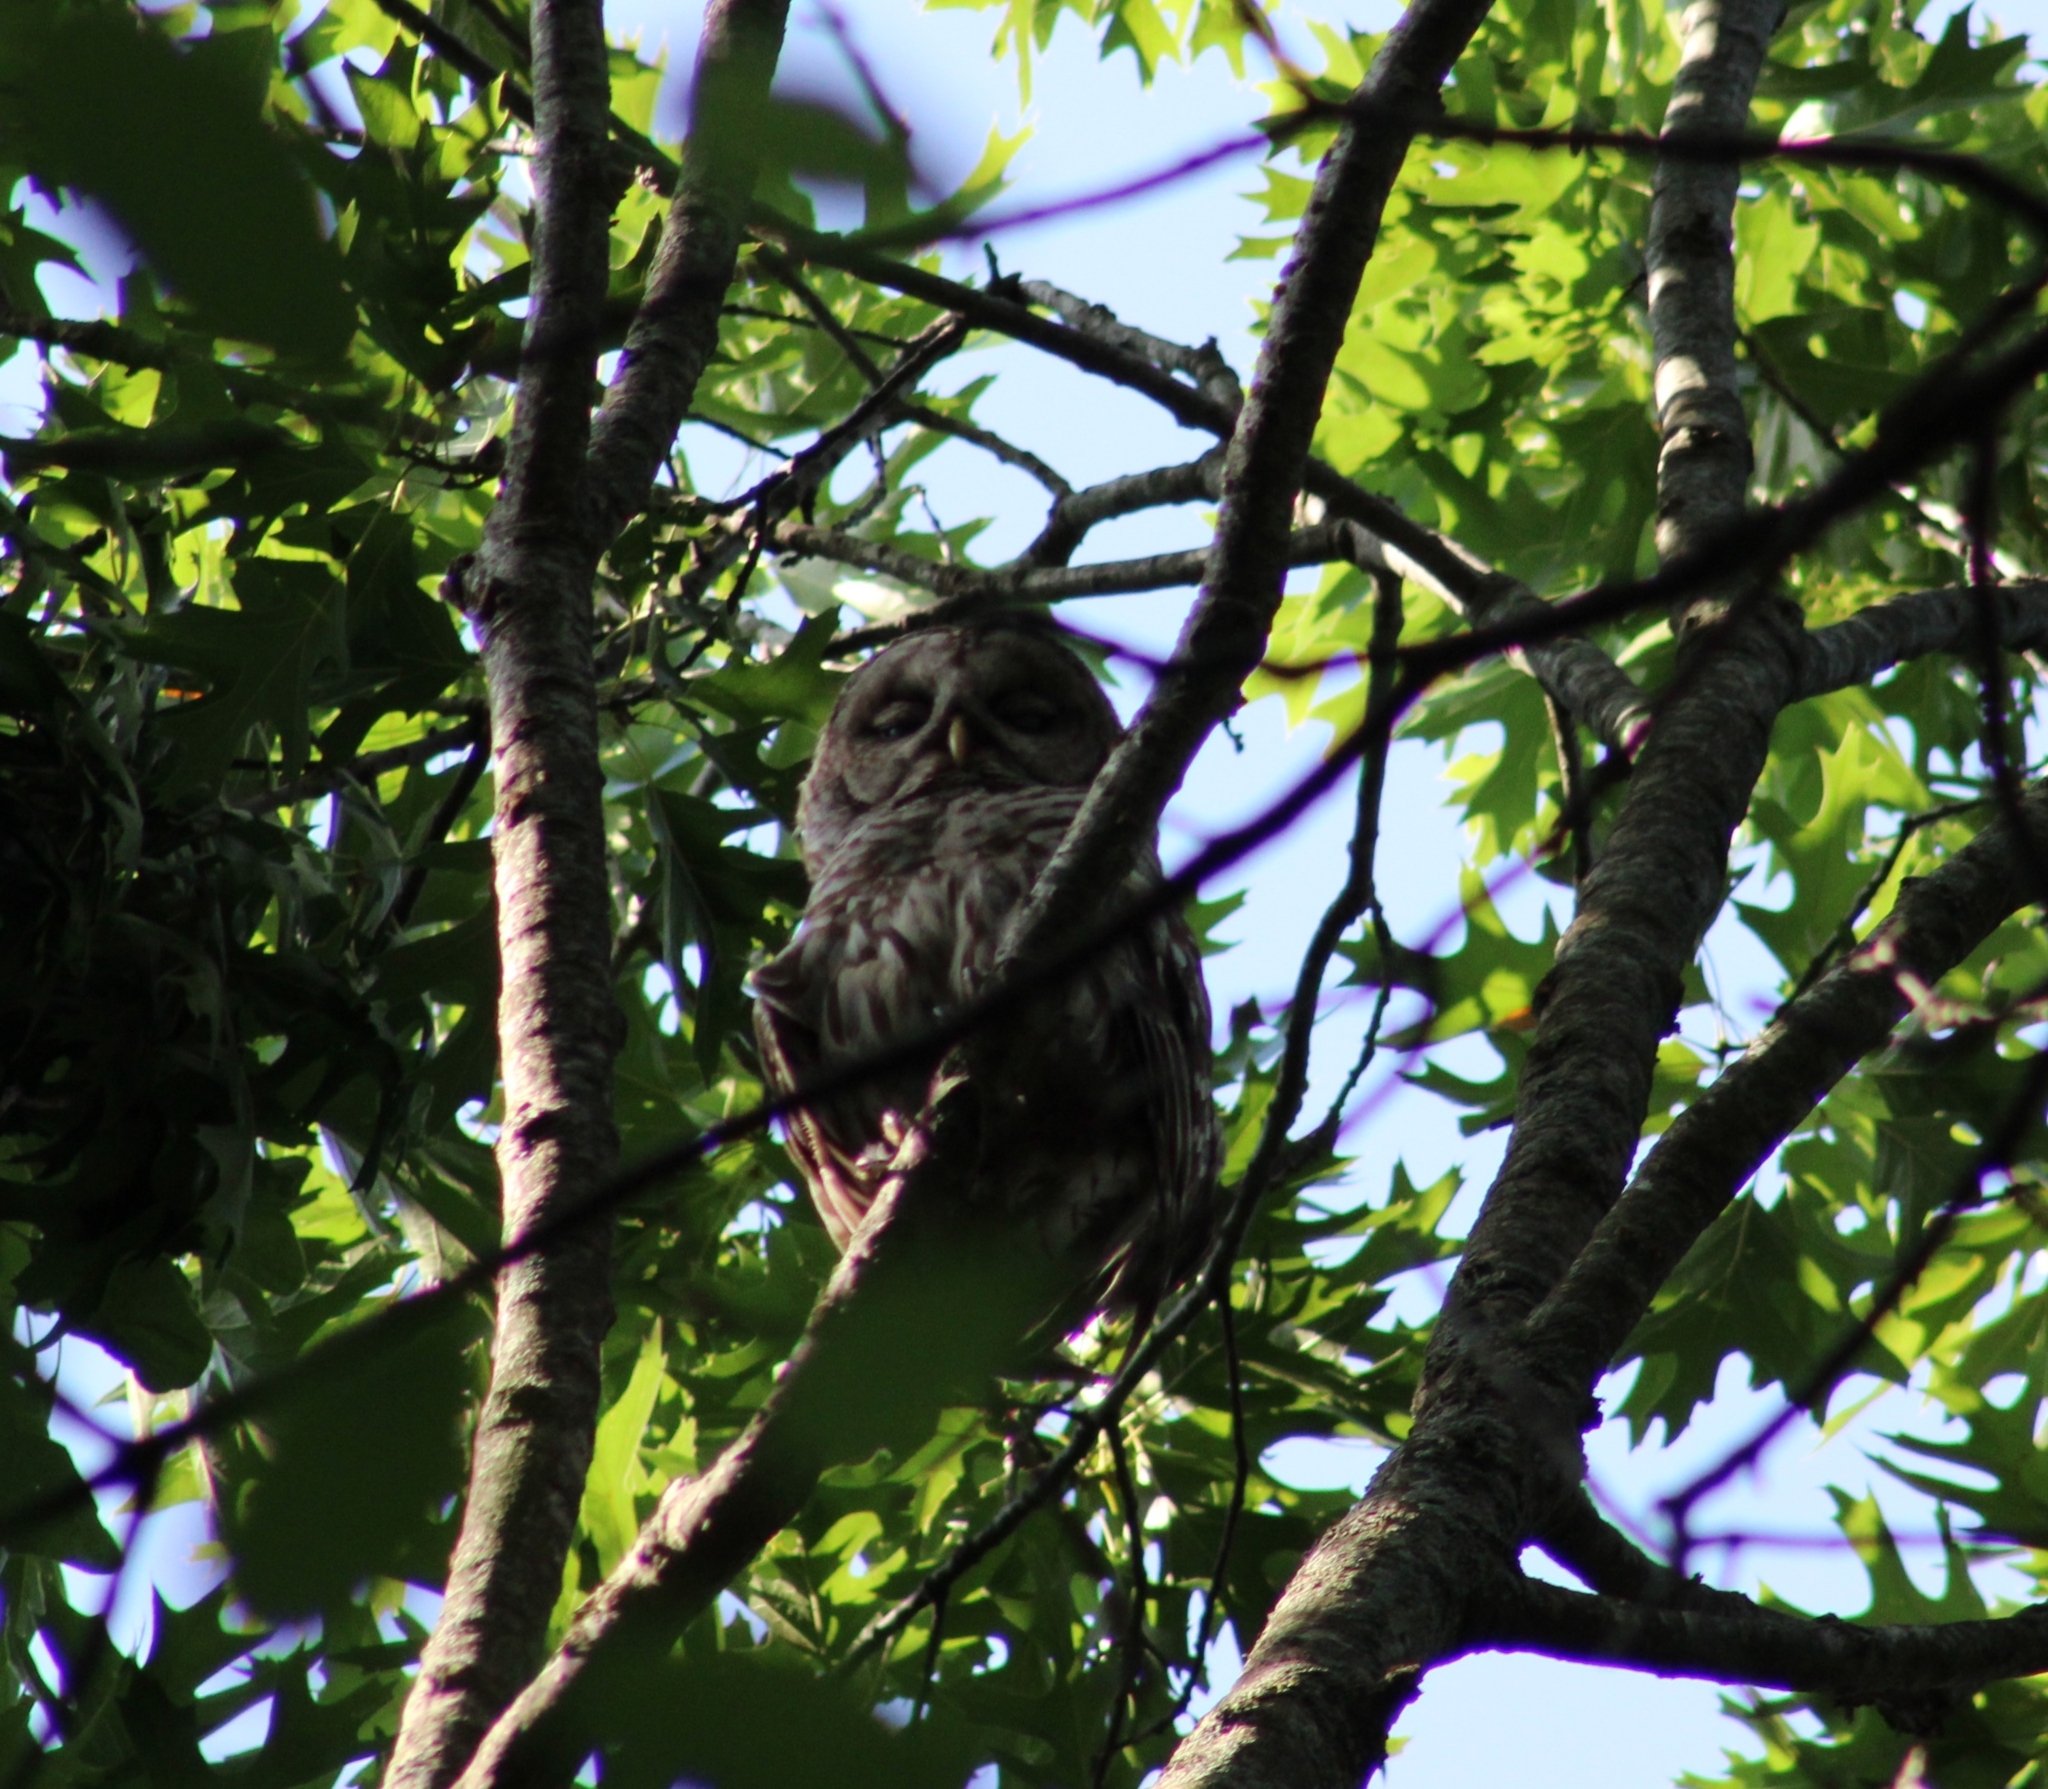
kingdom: Animalia
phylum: Chordata
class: Aves
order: Strigiformes
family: Strigidae
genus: Strix
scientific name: Strix varia
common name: Barred owl
